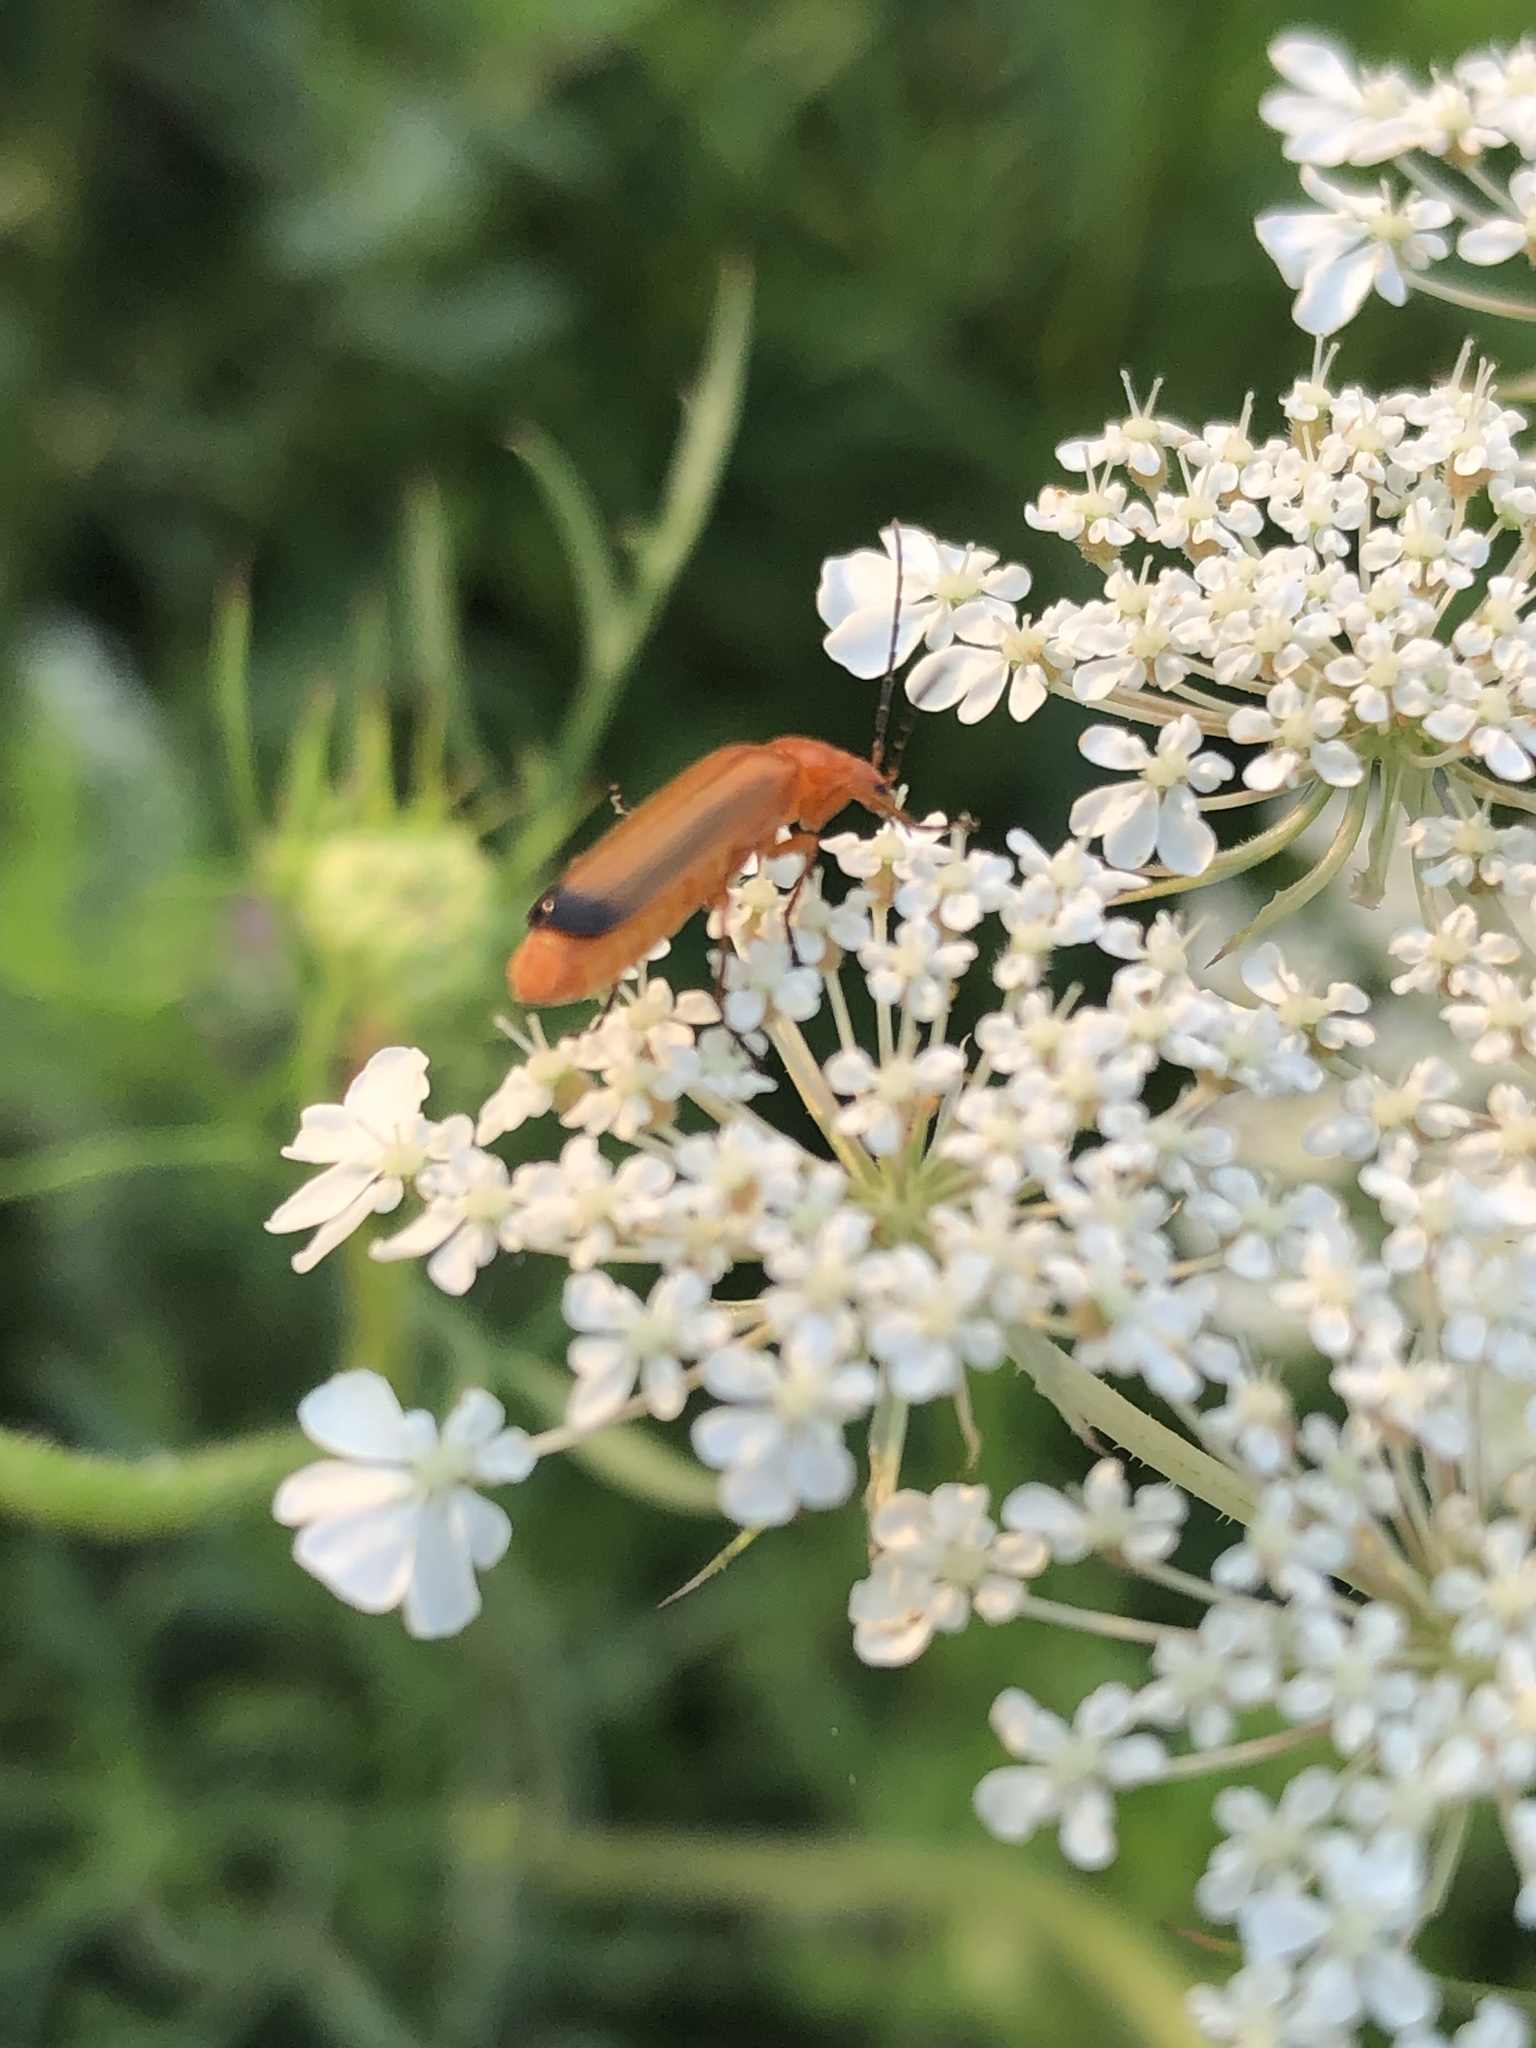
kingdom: Animalia
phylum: Arthropoda
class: Insecta
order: Coleoptera
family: Cantharidae
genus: Rhagonycha
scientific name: Rhagonycha fulva
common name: Common red soldier beetle
